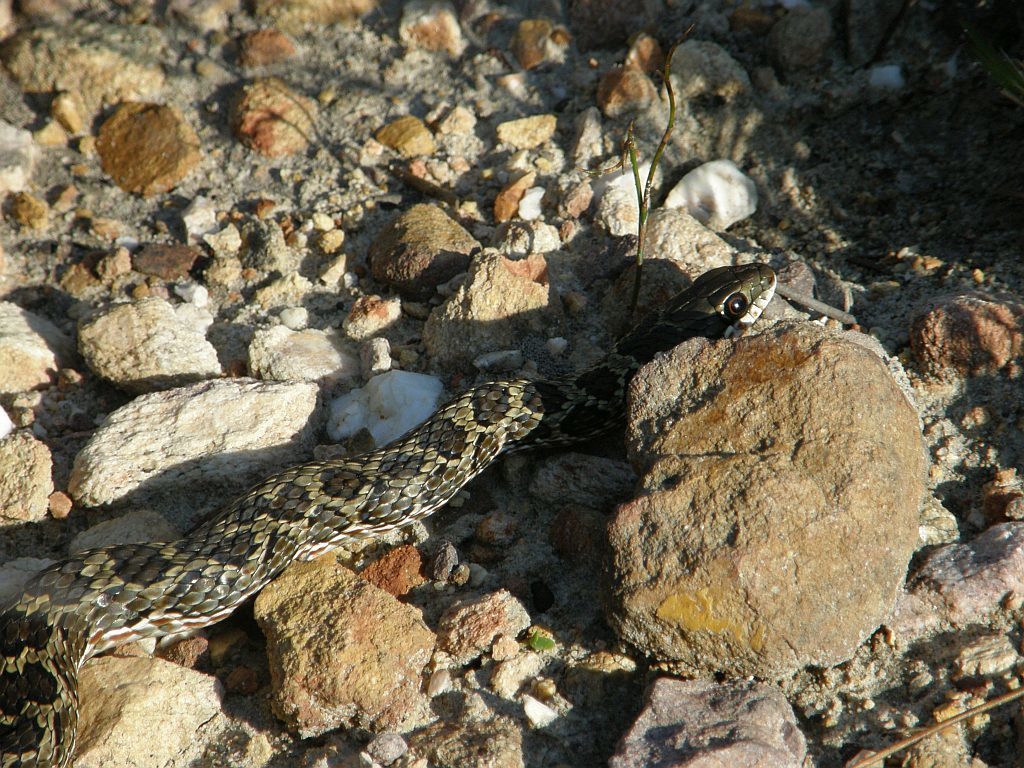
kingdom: Animalia
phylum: Chordata
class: Squamata
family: Psammophiidae
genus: Psammophylax
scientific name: Psammophylax rhombeatus
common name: Rhombic skaapsteker
